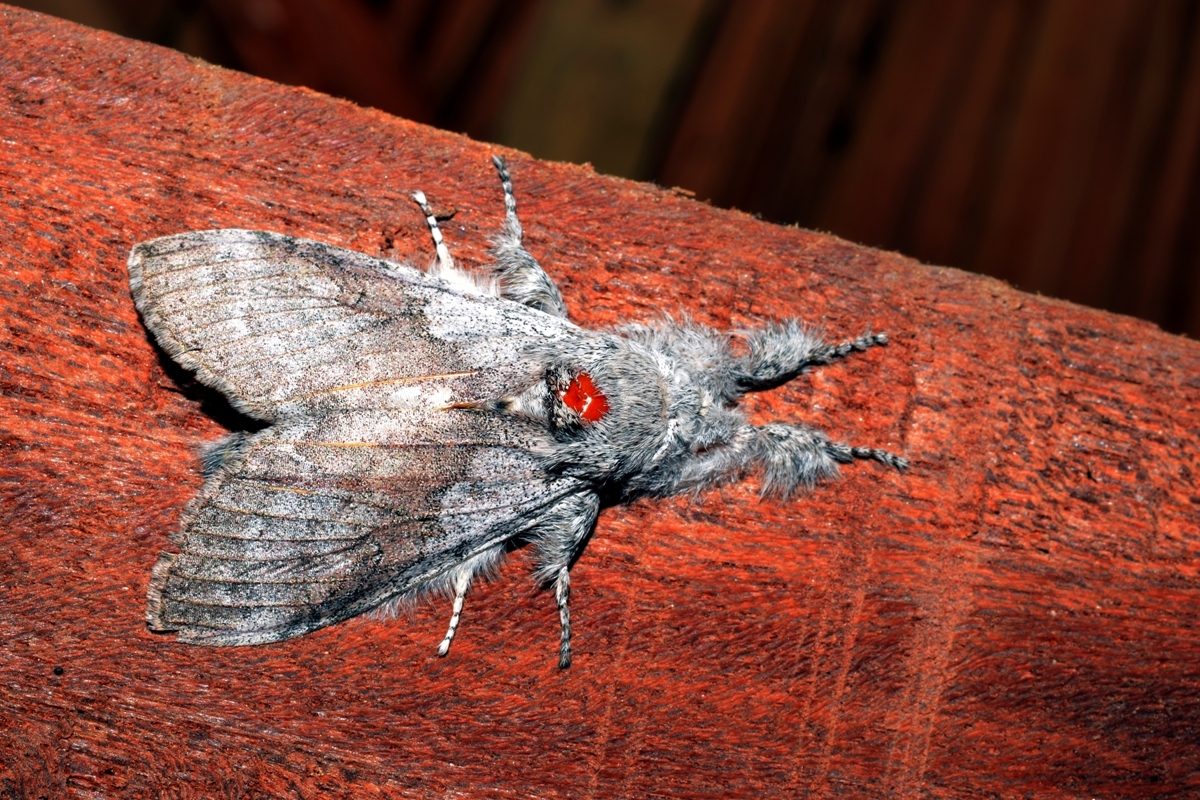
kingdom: Animalia
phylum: Arthropoda
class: Insecta
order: Lepidoptera
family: Erebidae
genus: Calliteara
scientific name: Calliteara grotei
